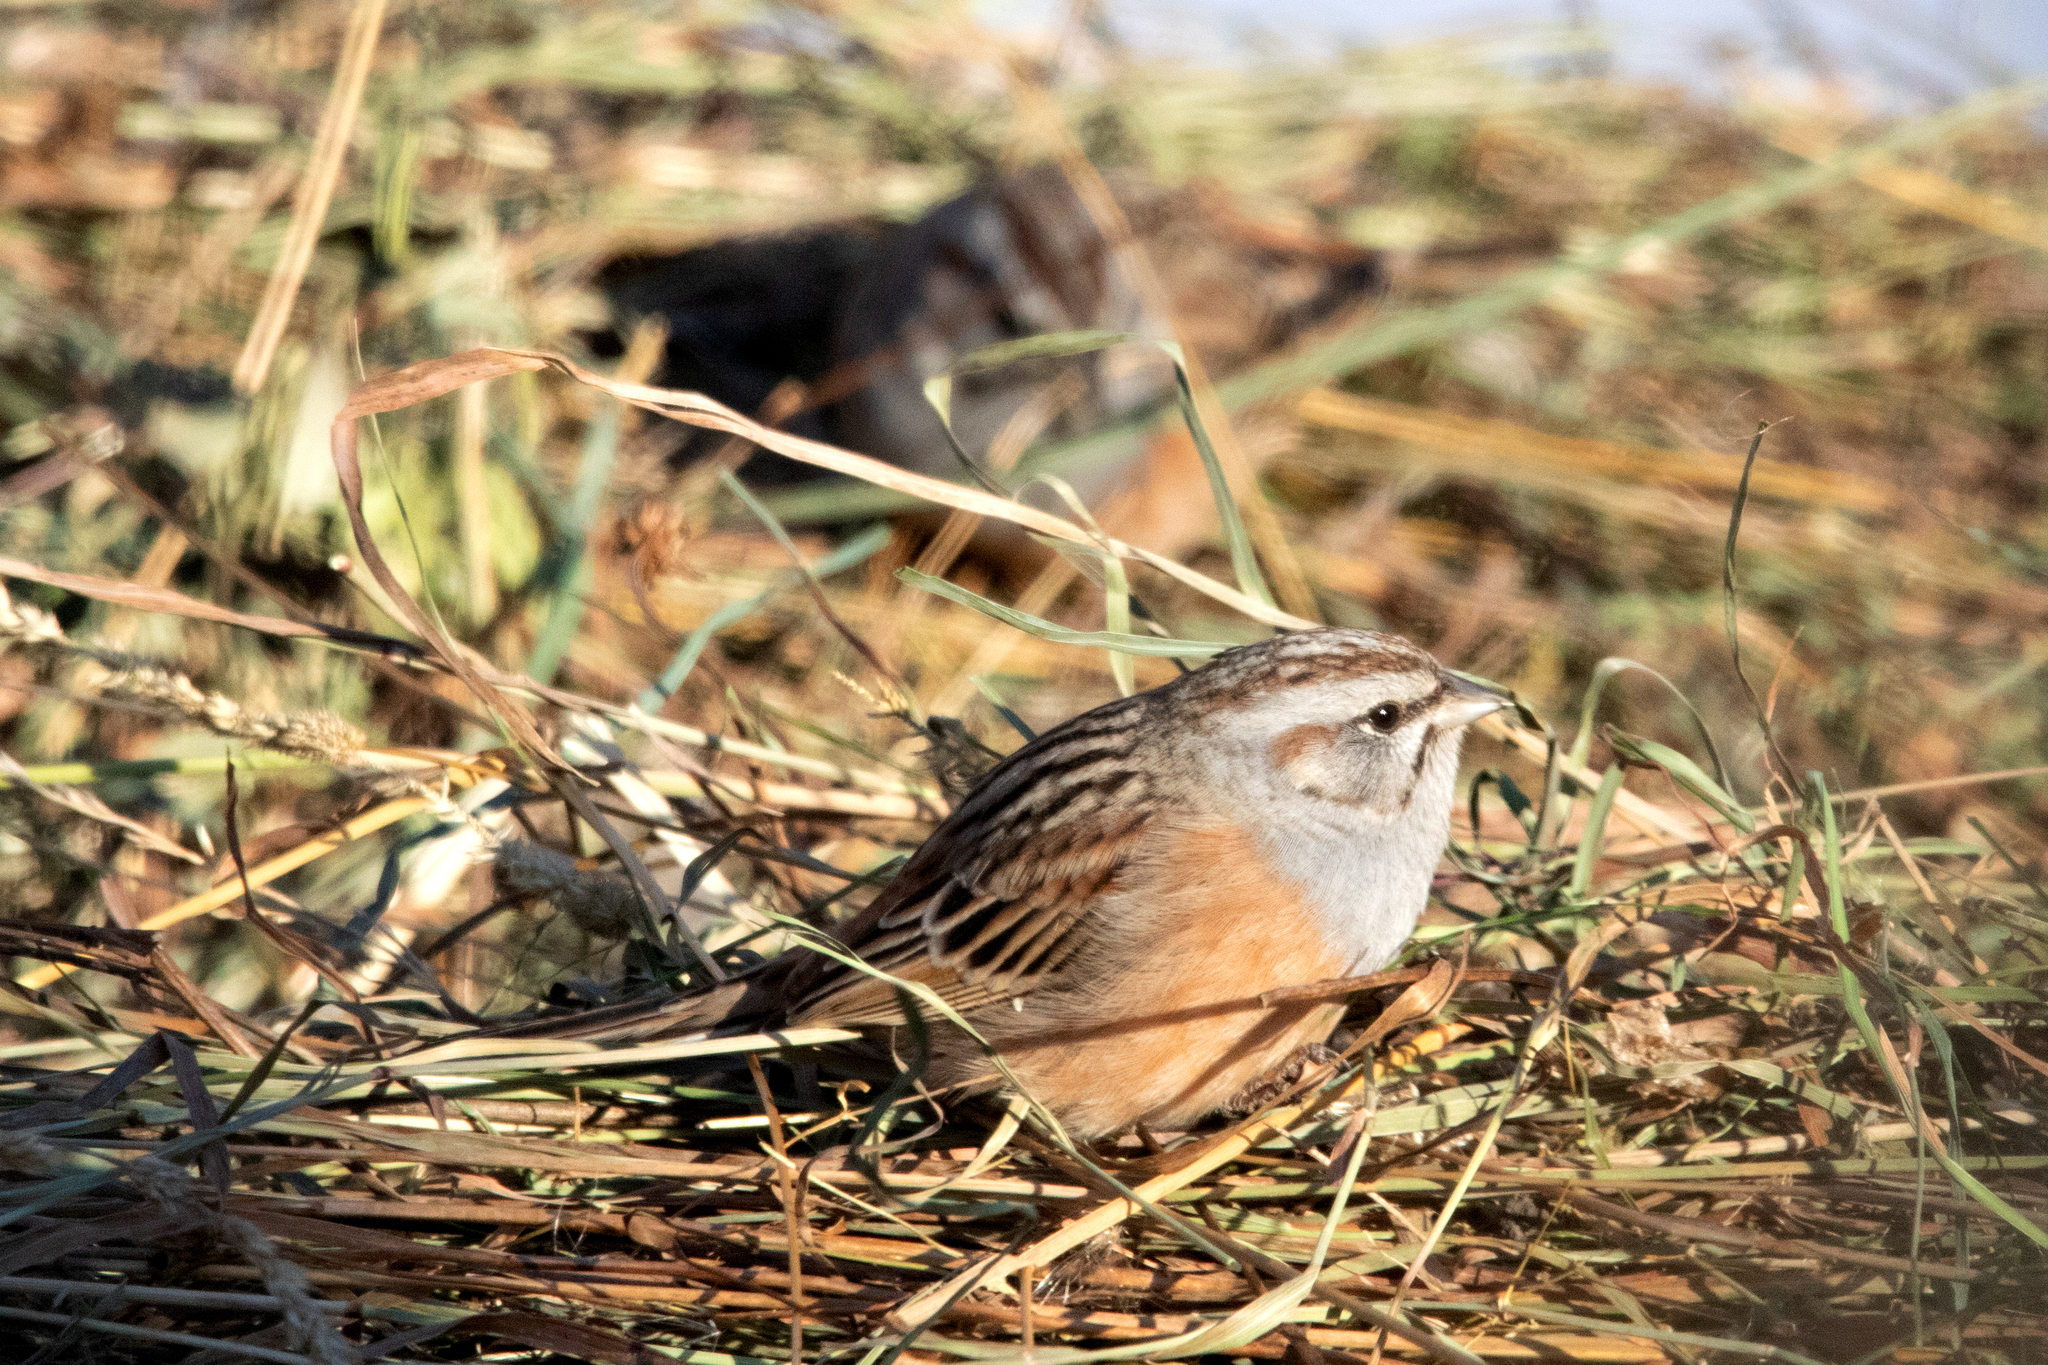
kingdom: Animalia
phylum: Chordata
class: Aves
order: Passeriformes
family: Emberizidae
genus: Emberiza
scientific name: Emberiza godlewskii
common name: Godlewski's bunting
